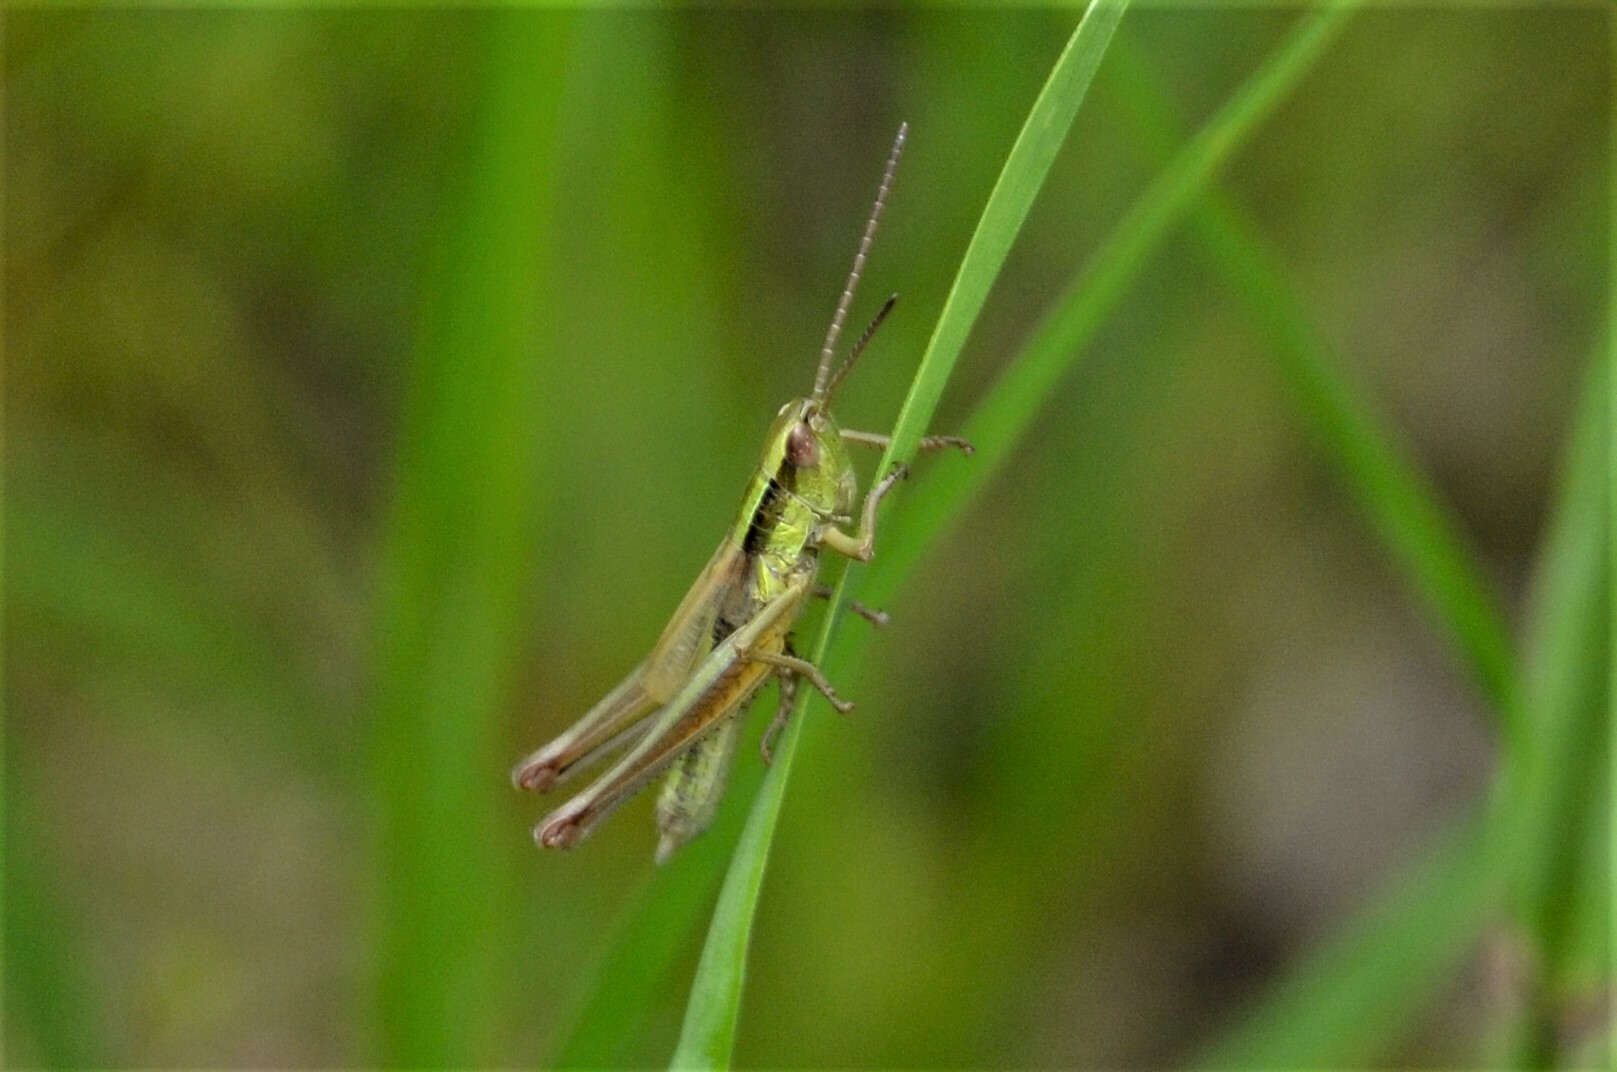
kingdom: Animalia
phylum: Arthropoda
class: Insecta
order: Orthoptera
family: Acrididae
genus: Euthystira
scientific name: Euthystira brachyptera
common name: Small gold grasshopper
